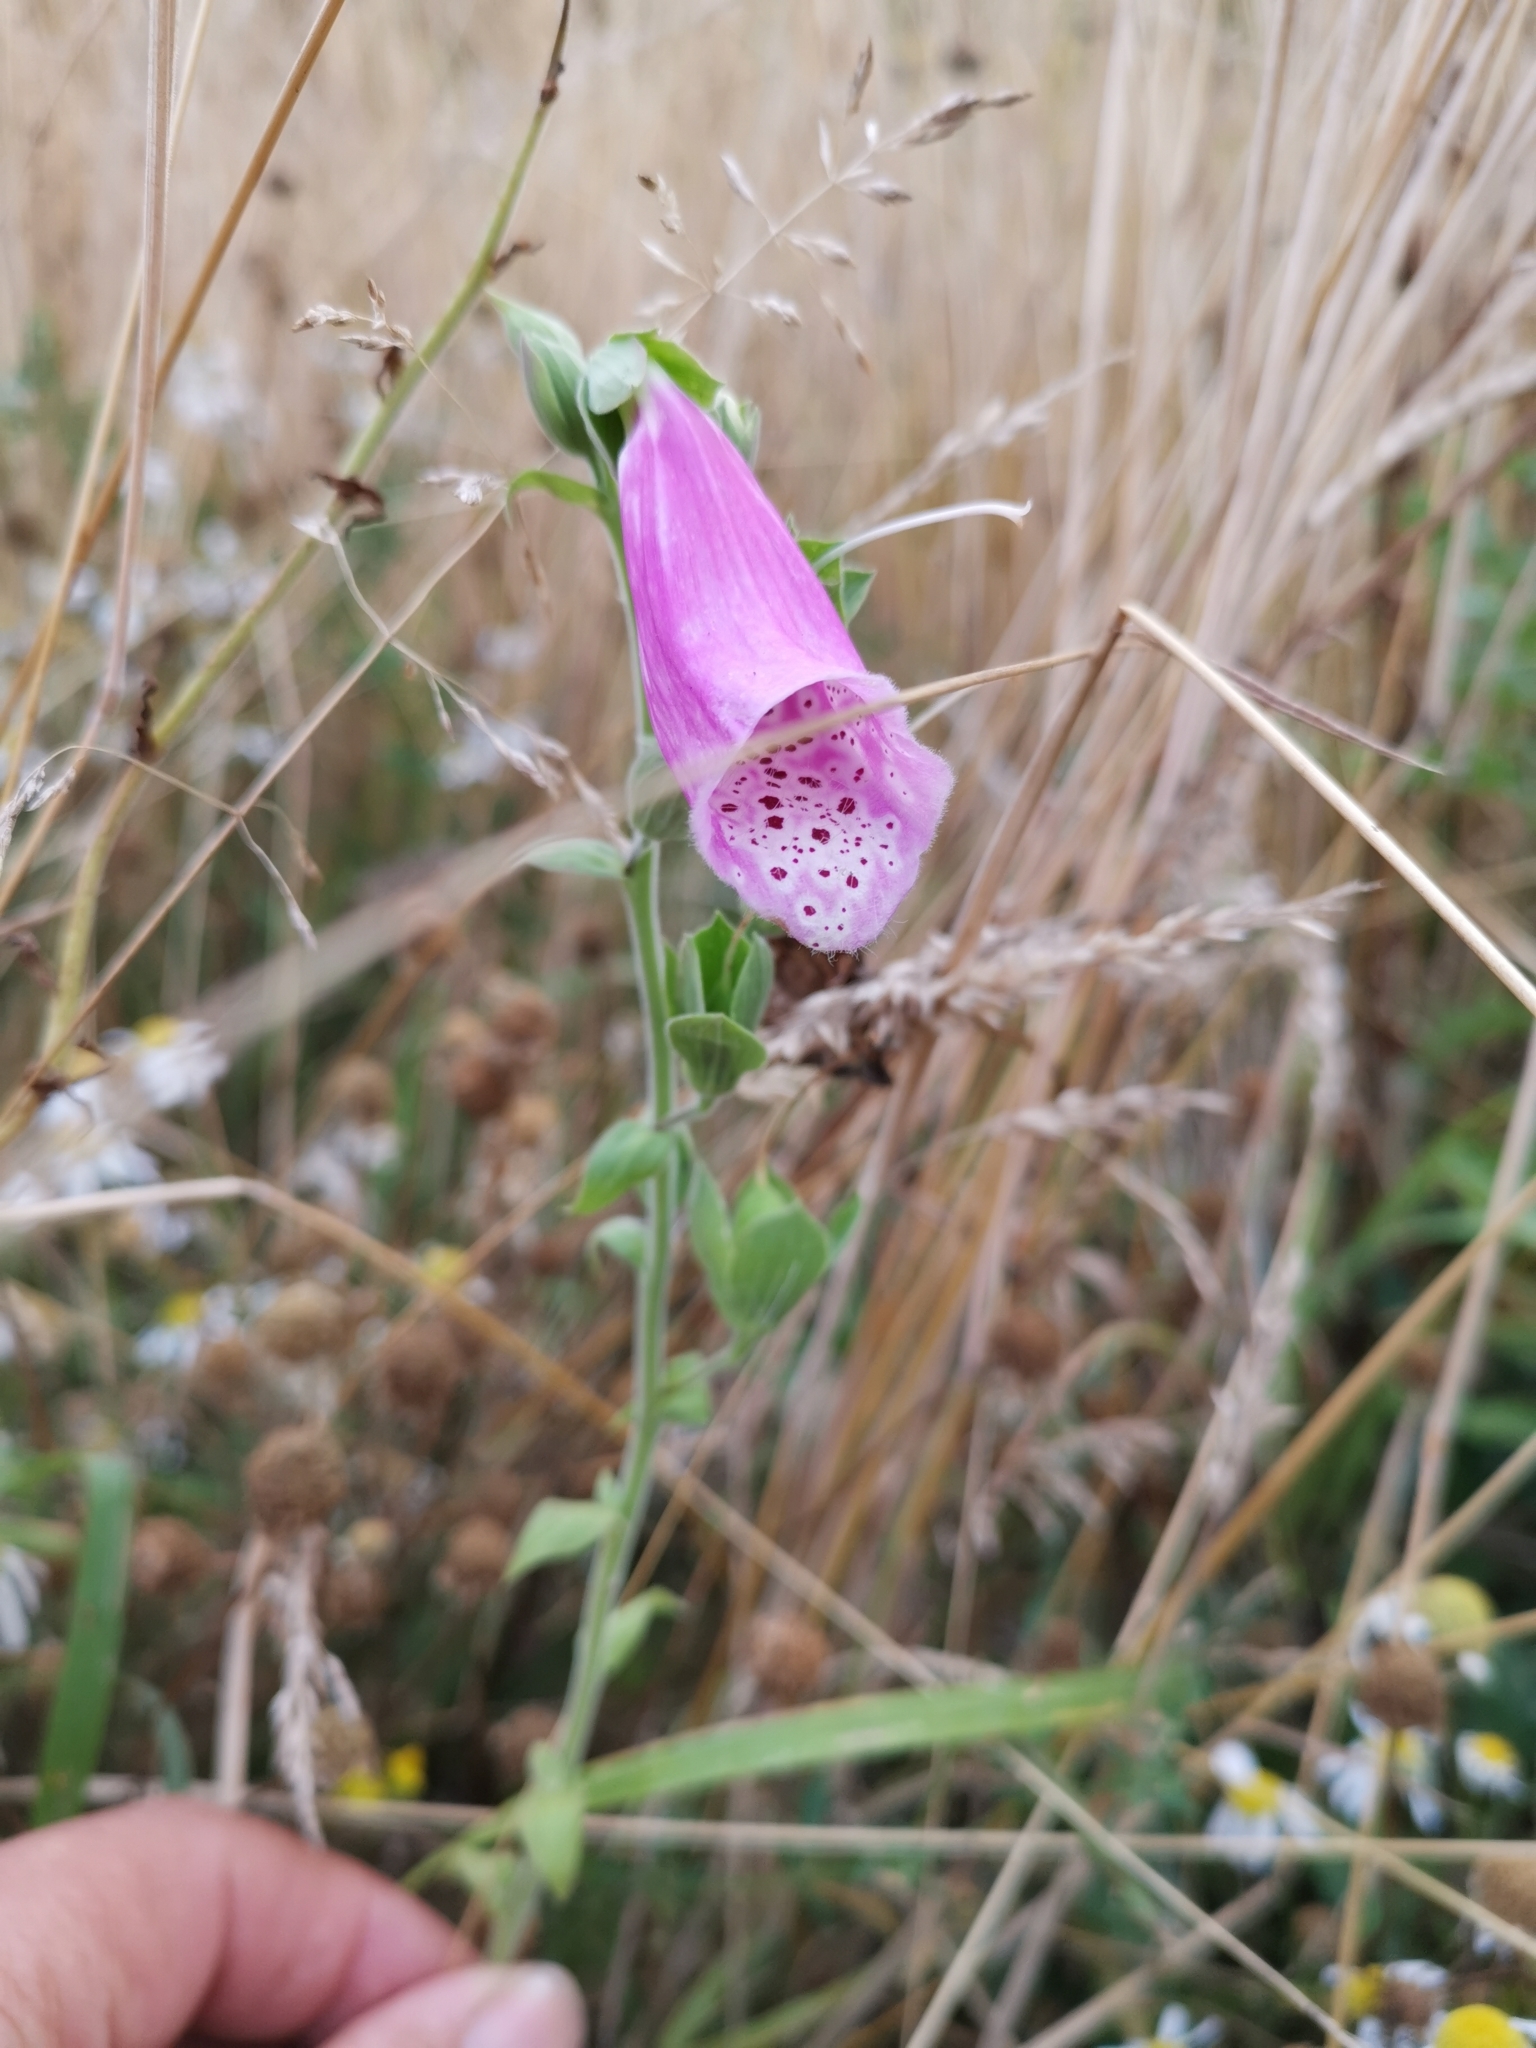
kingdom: Plantae
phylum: Tracheophyta
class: Magnoliopsida
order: Lamiales
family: Plantaginaceae
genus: Digitalis
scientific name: Digitalis purpurea
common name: Foxglove
